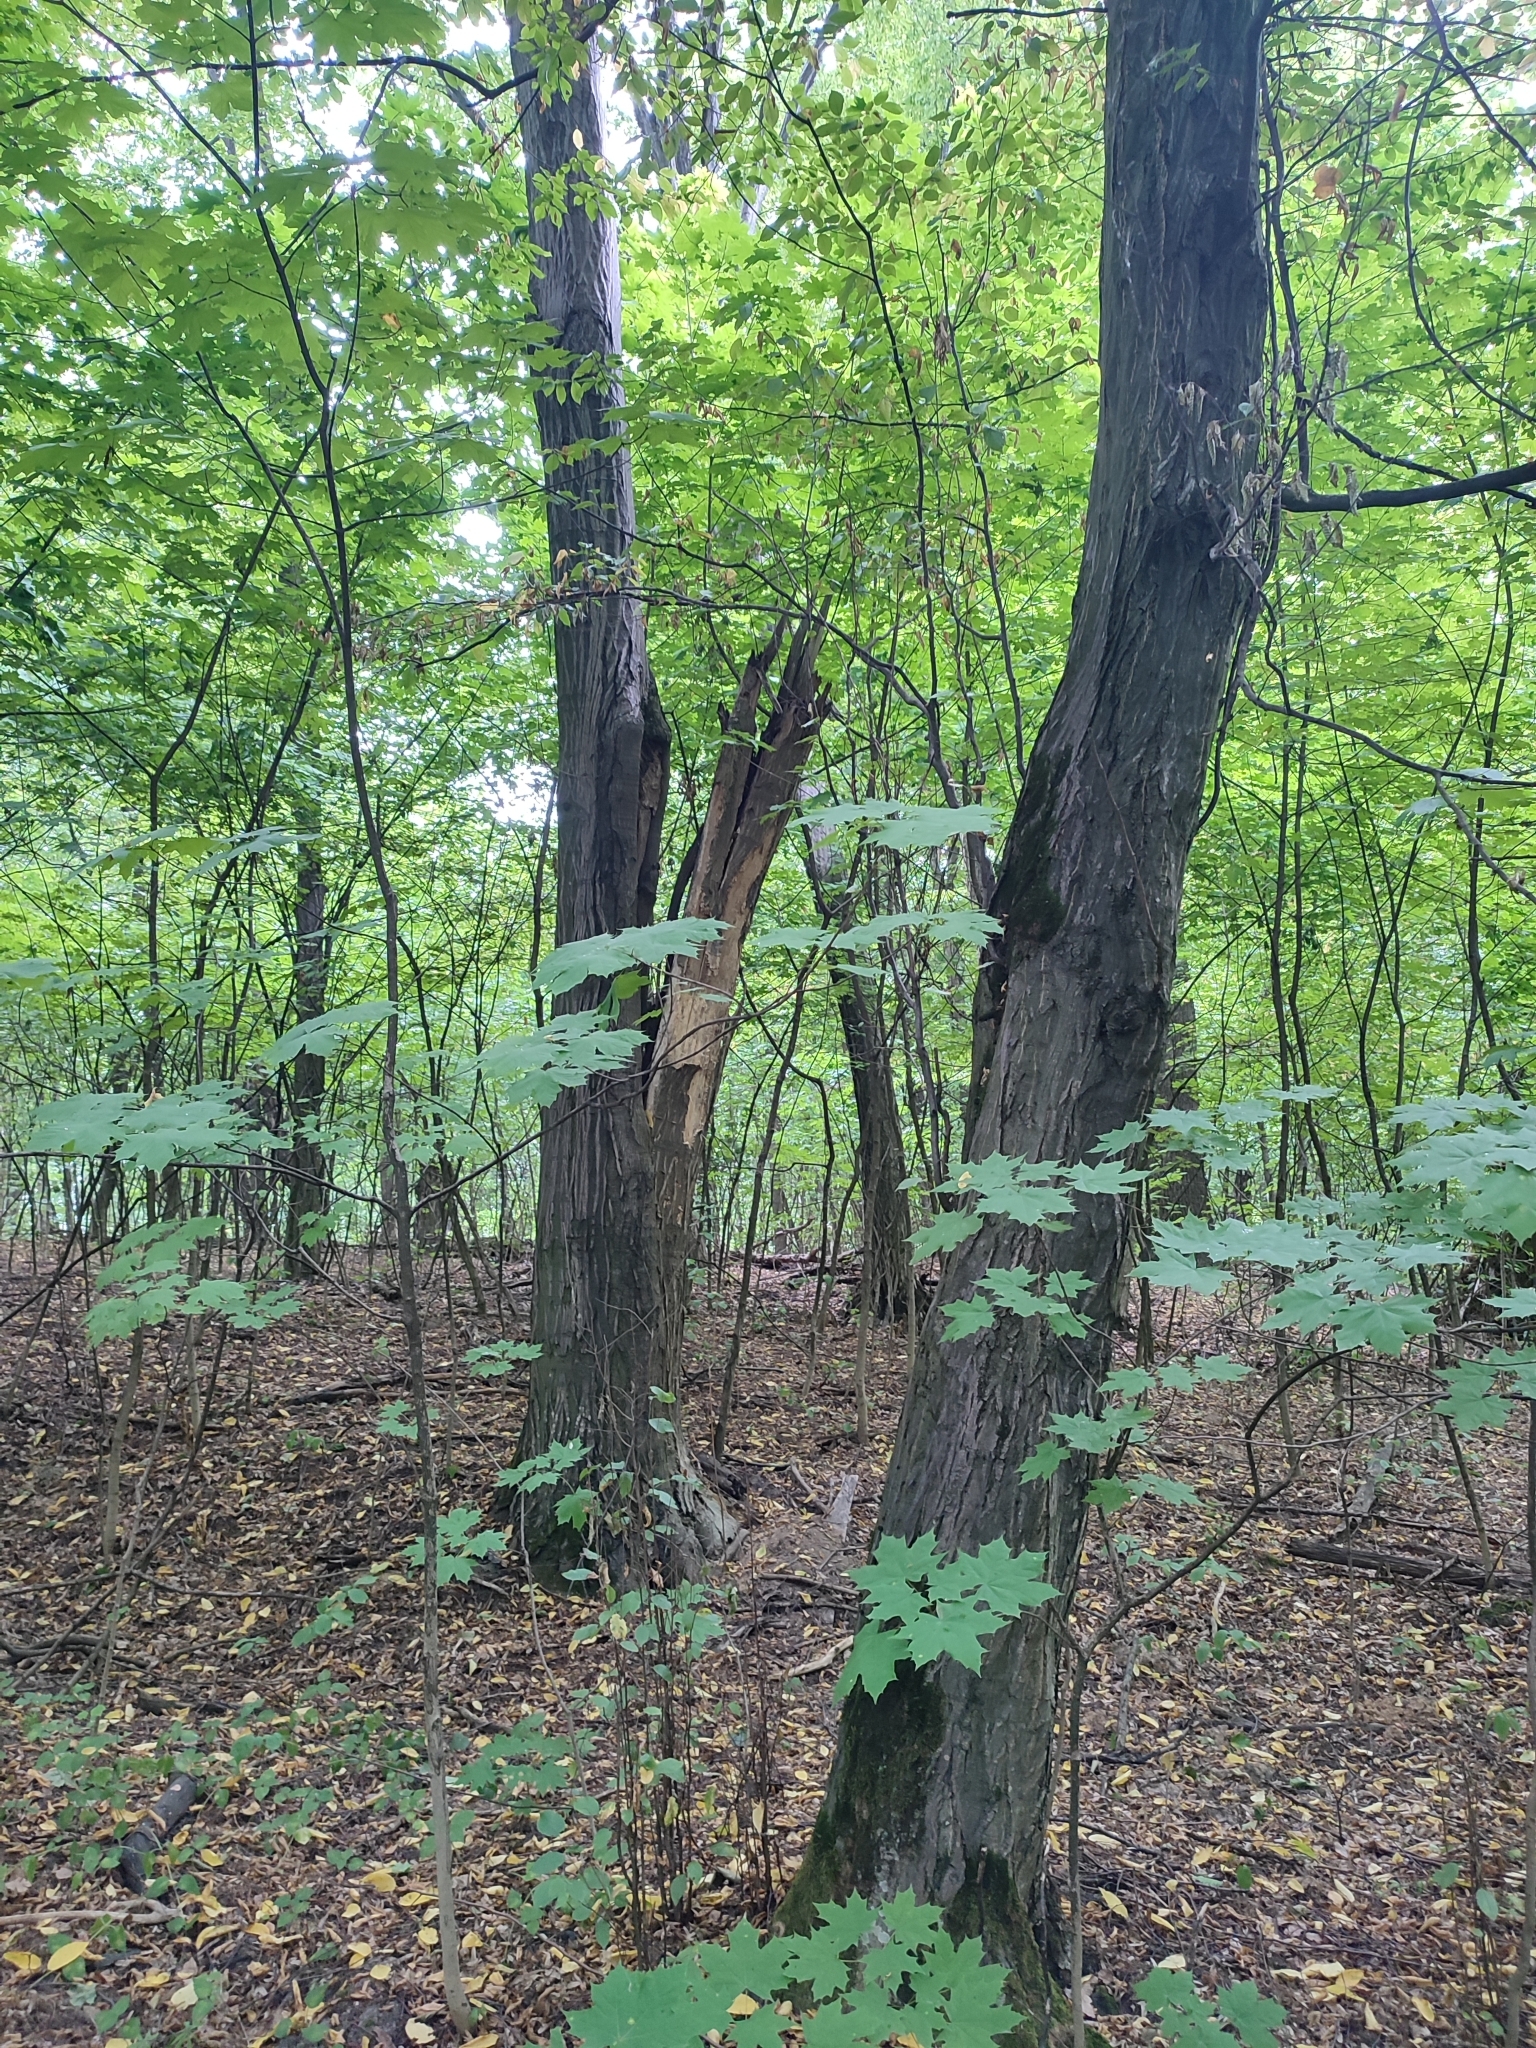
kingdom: Plantae
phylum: Tracheophyta
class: Magnoliopsida
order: Fagales
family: Betulaceae
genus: Carpinus
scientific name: Carpinus betulus
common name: Hornbeam
